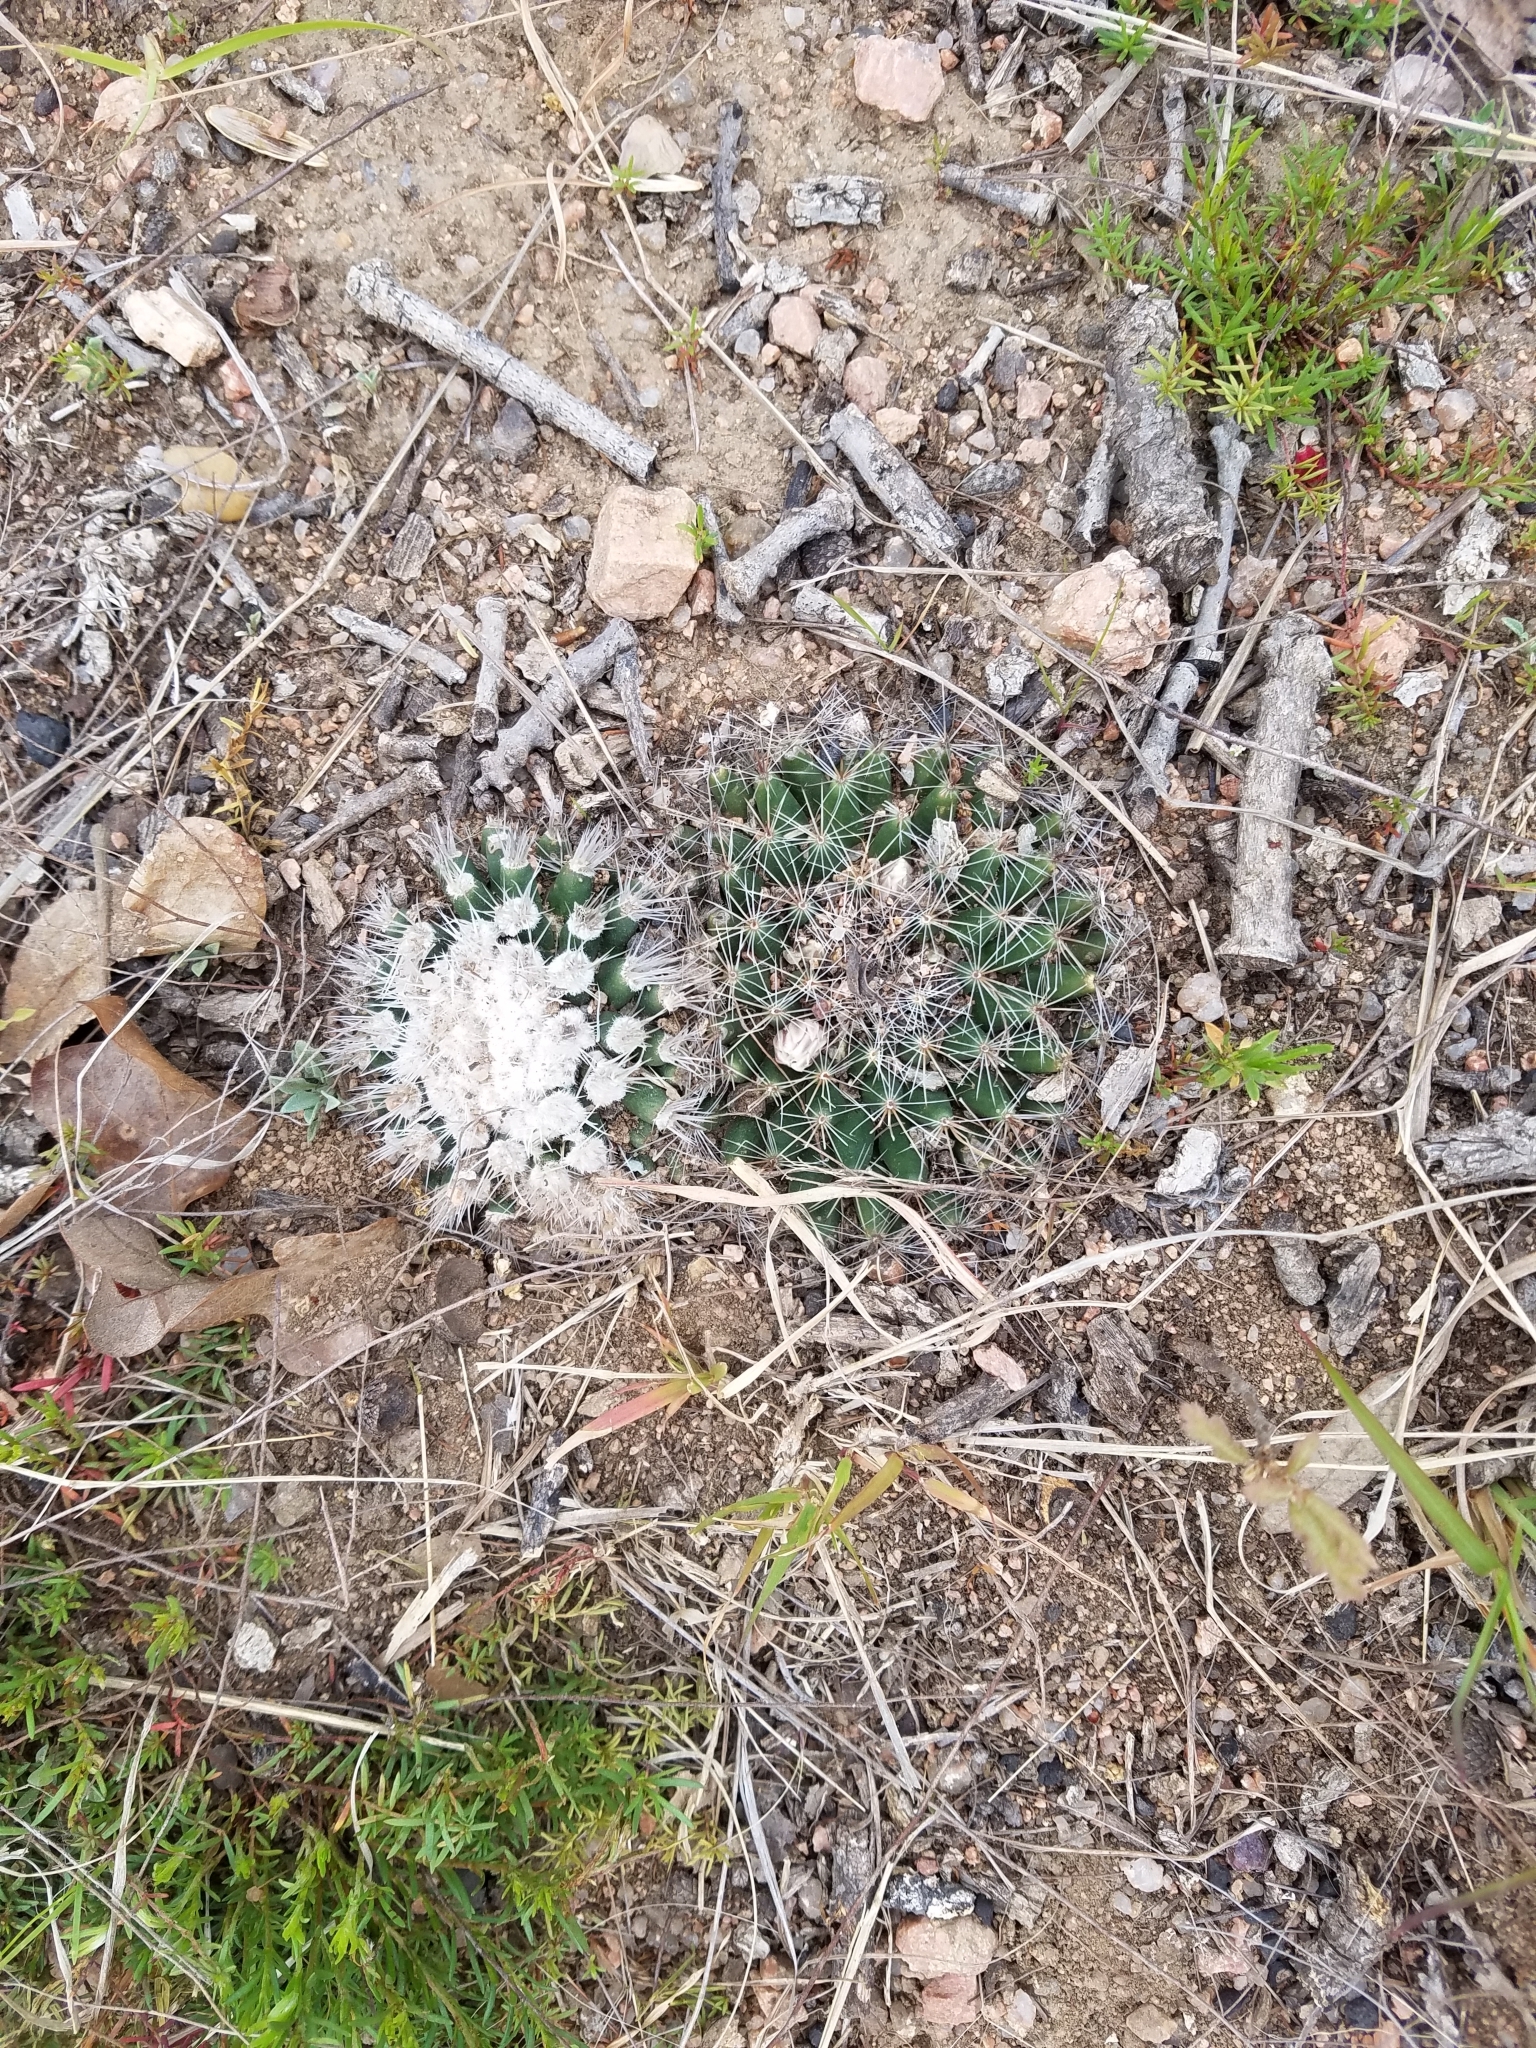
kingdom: Plantae
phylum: Tracheophyta
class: Magnoliopsida
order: Caryophyllales
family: Cactaceae
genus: Mammillaria
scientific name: Mammillaria heyderi
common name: Little nipple cactus
